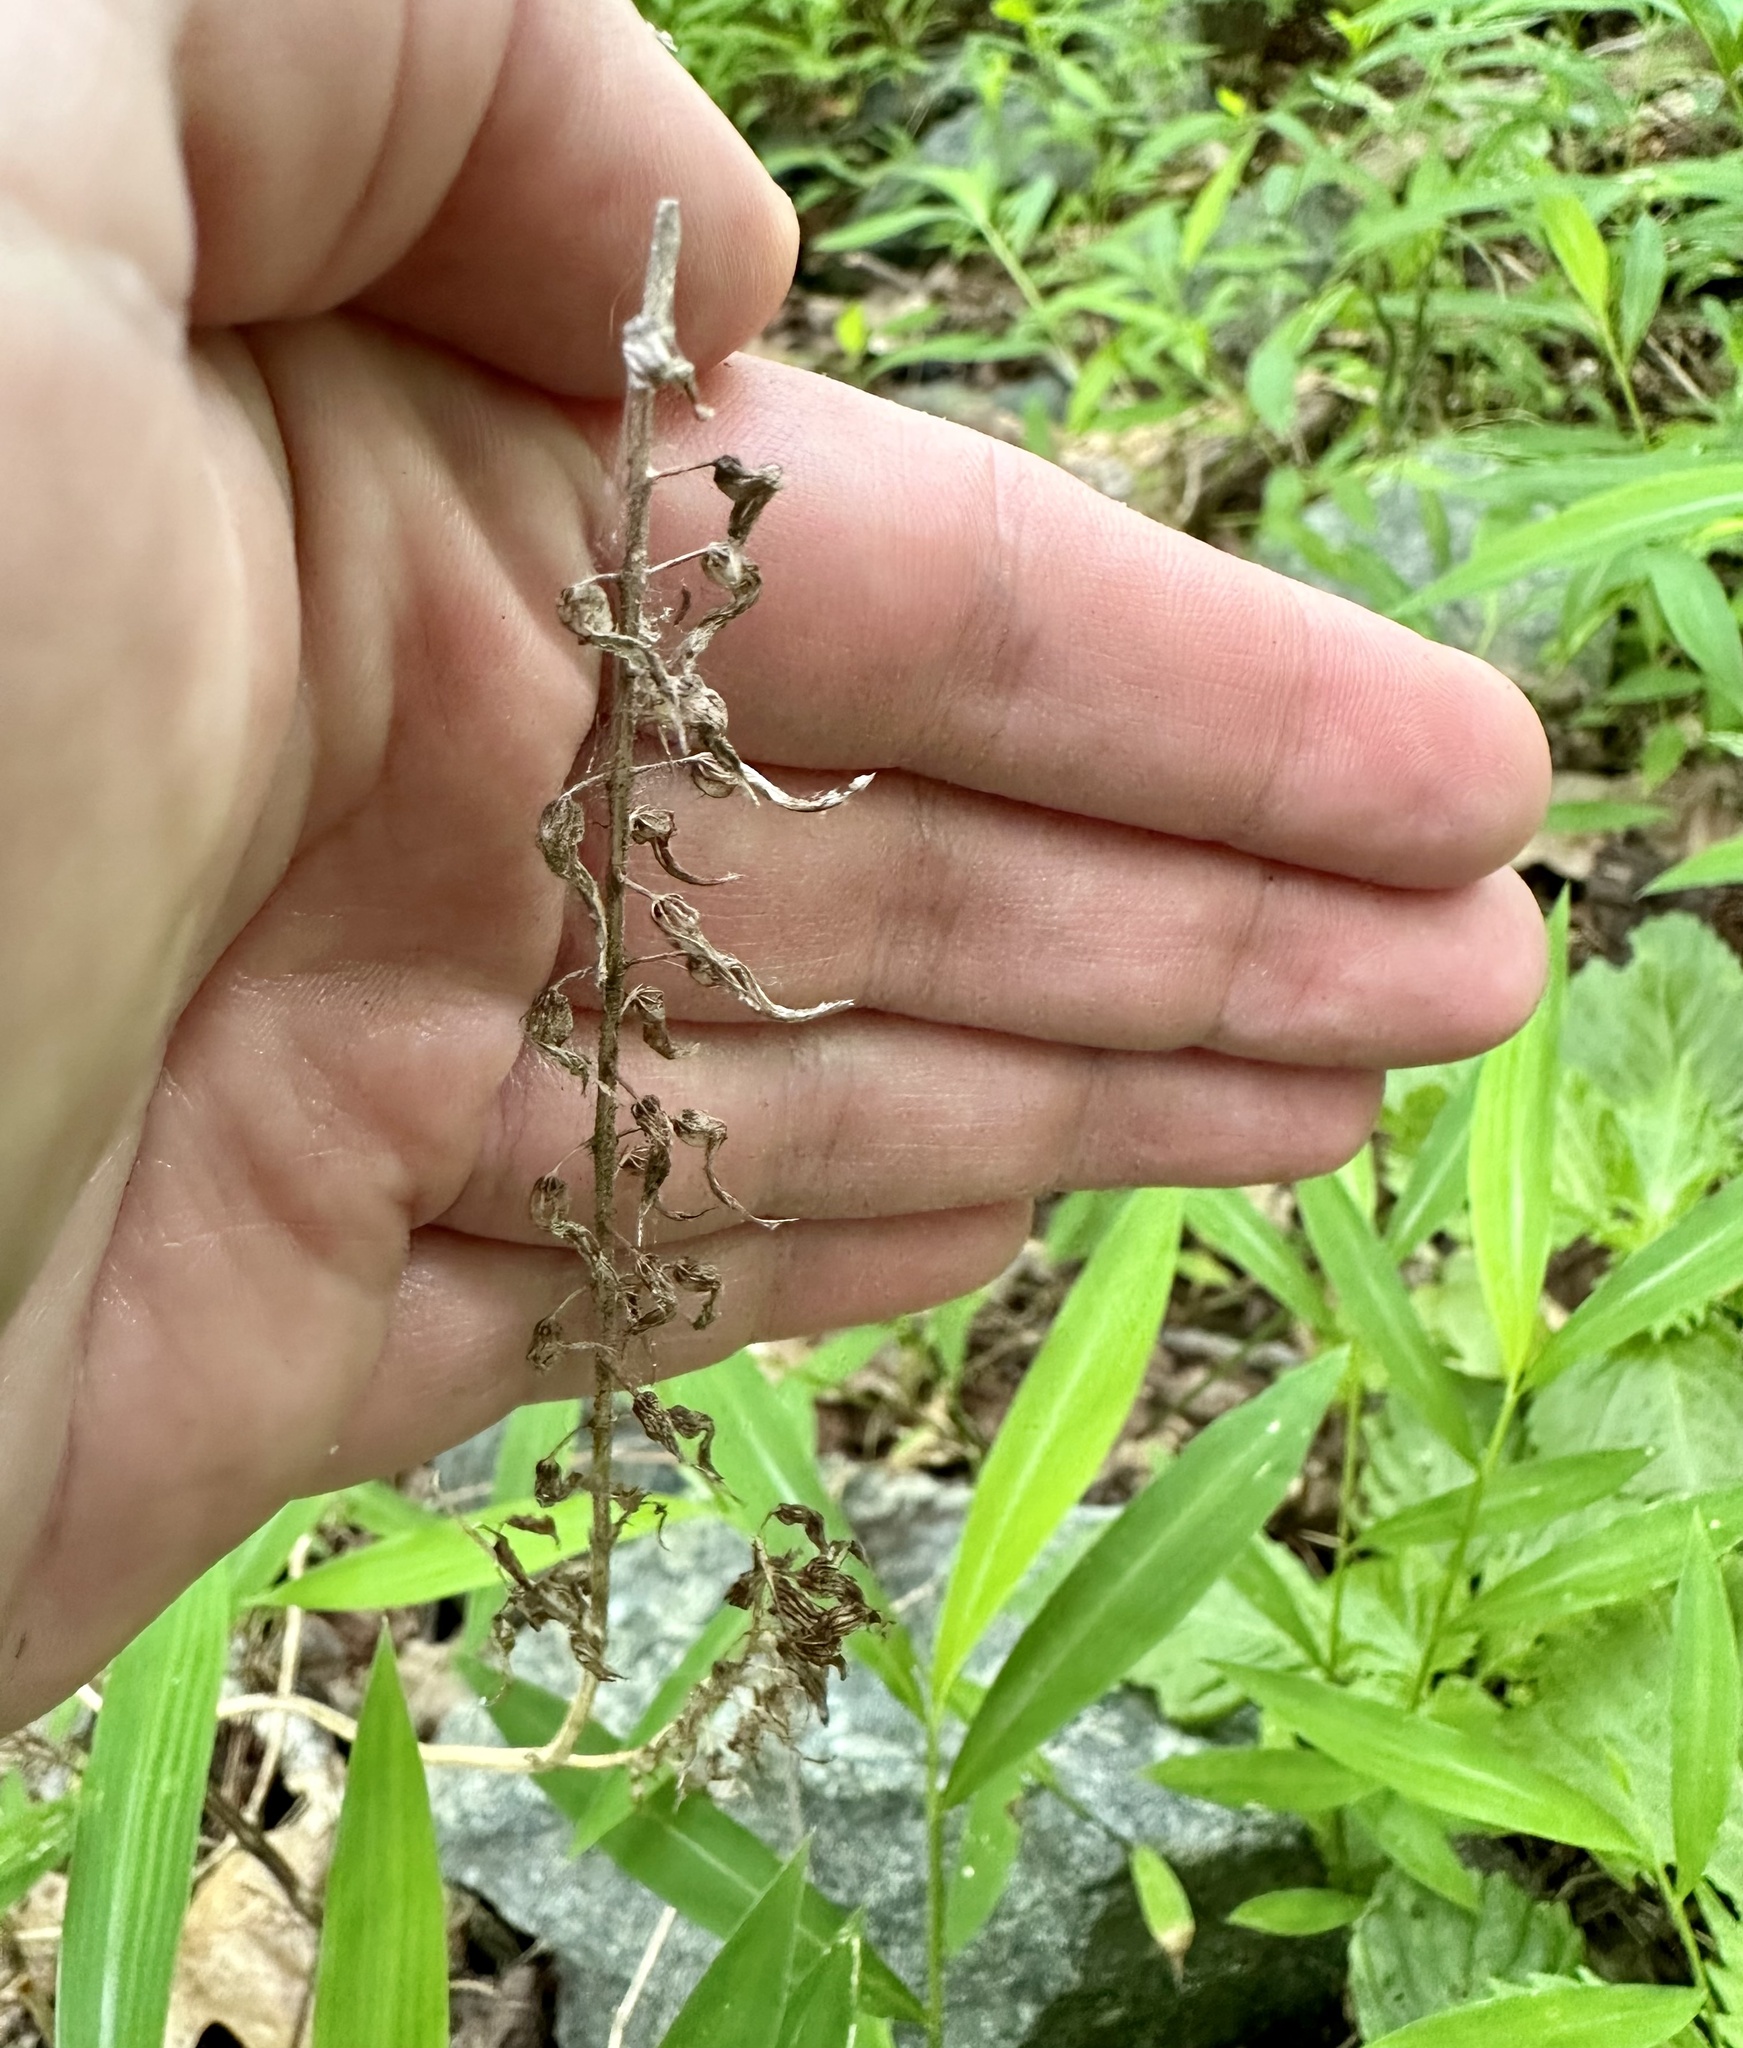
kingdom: Plantae
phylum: Tracheophyta
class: Magnoliopsida
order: Lamiales
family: Lamiaceae
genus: Perilla
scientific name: Perilla frutescens
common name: Perilla
